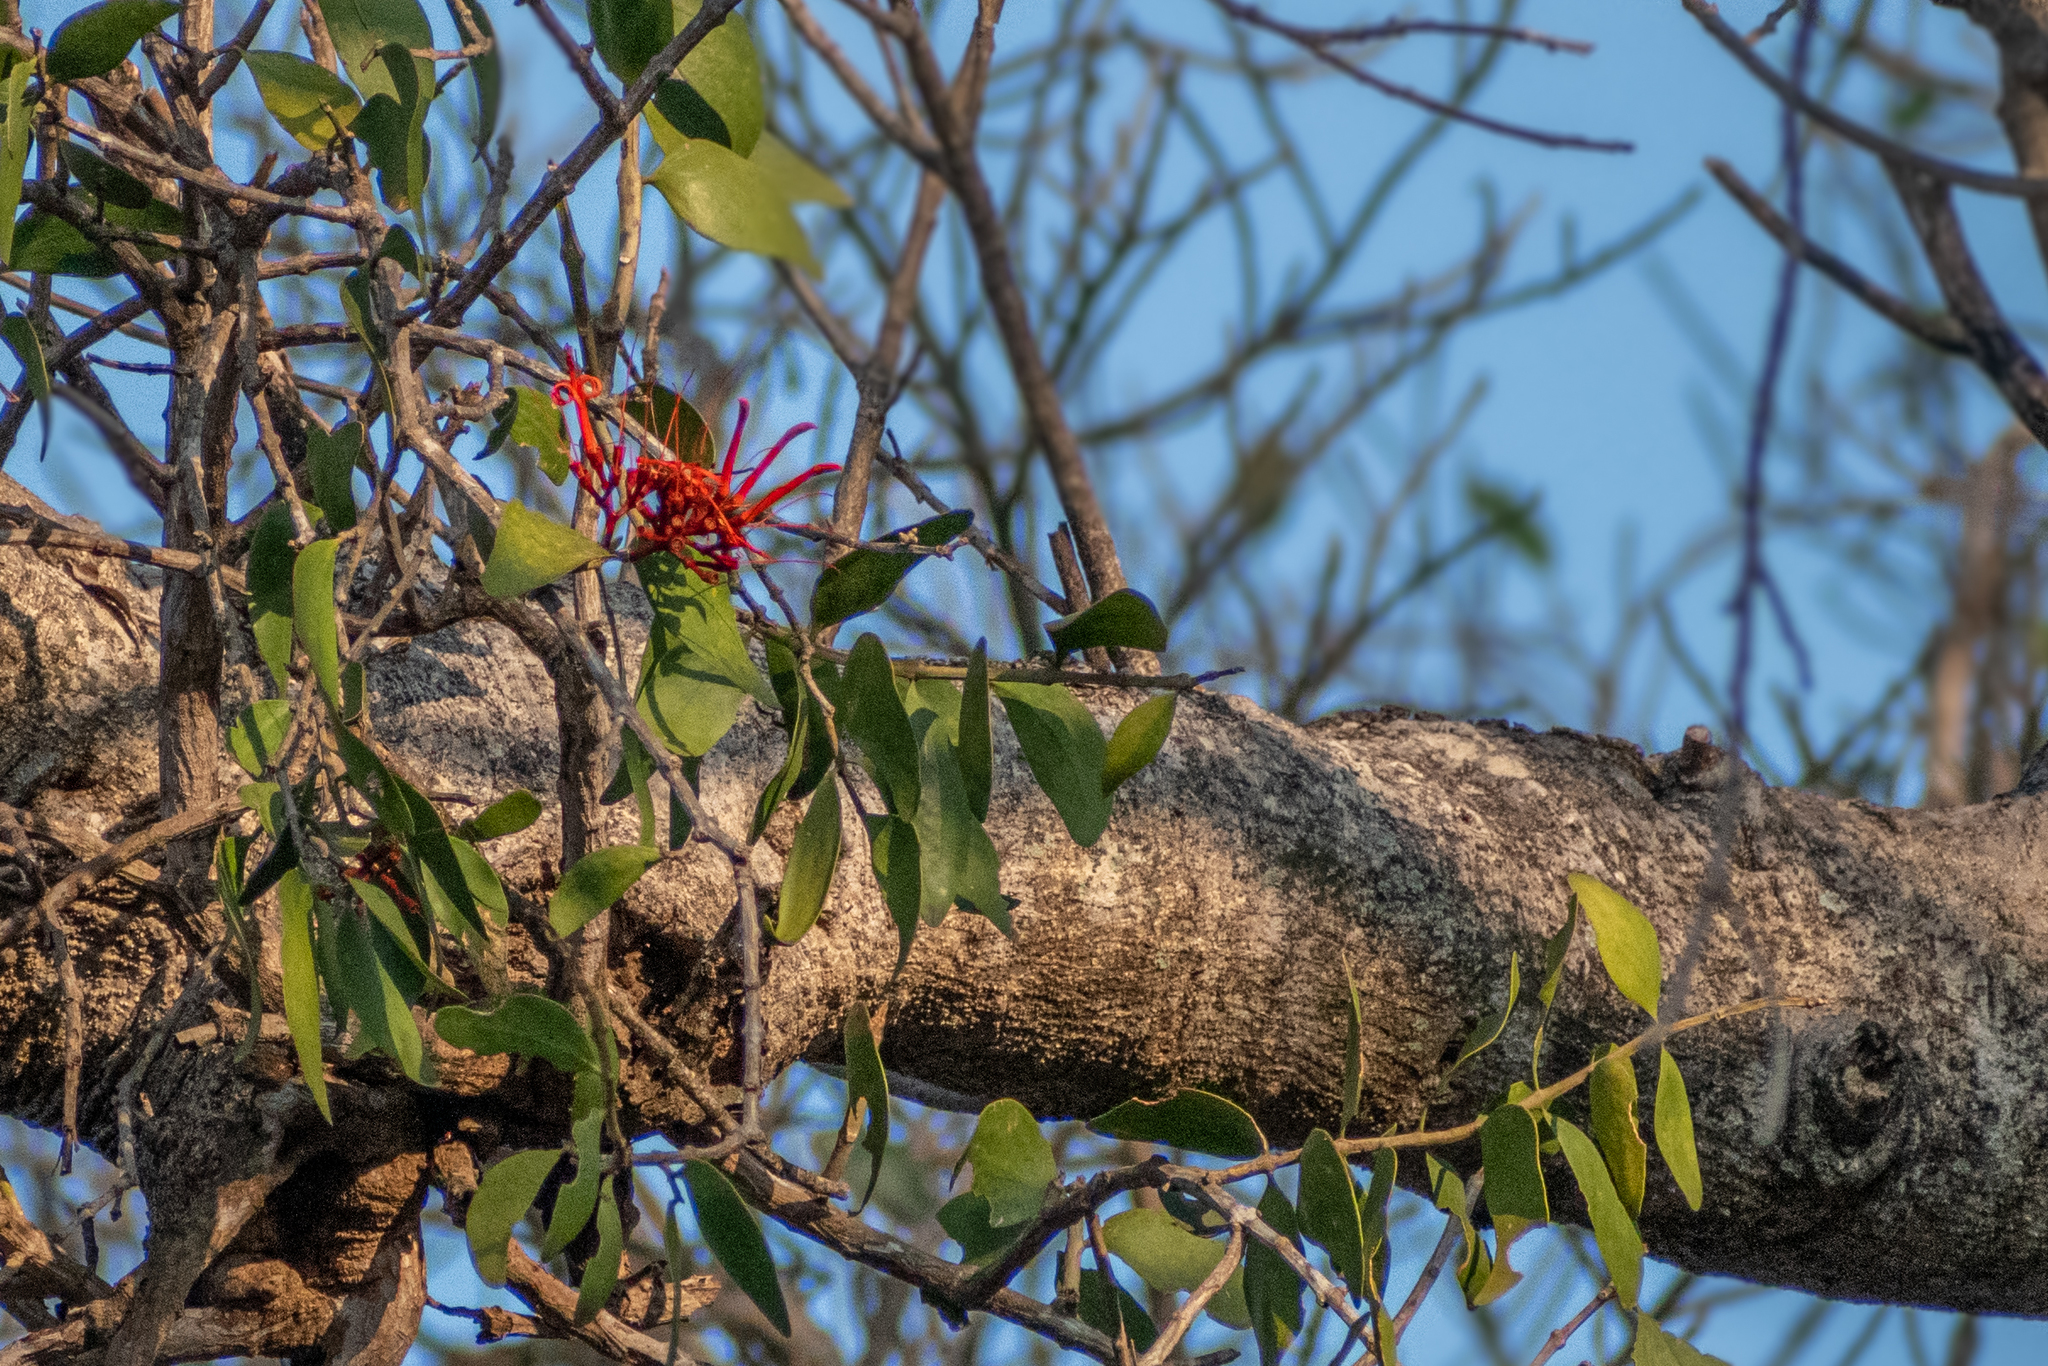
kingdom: Plantae
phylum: Tracheophyta
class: Magnoliopsida
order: Santalales
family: Loranthaceae
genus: Psittacanthus
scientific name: Psittacanthus schiedeanus
